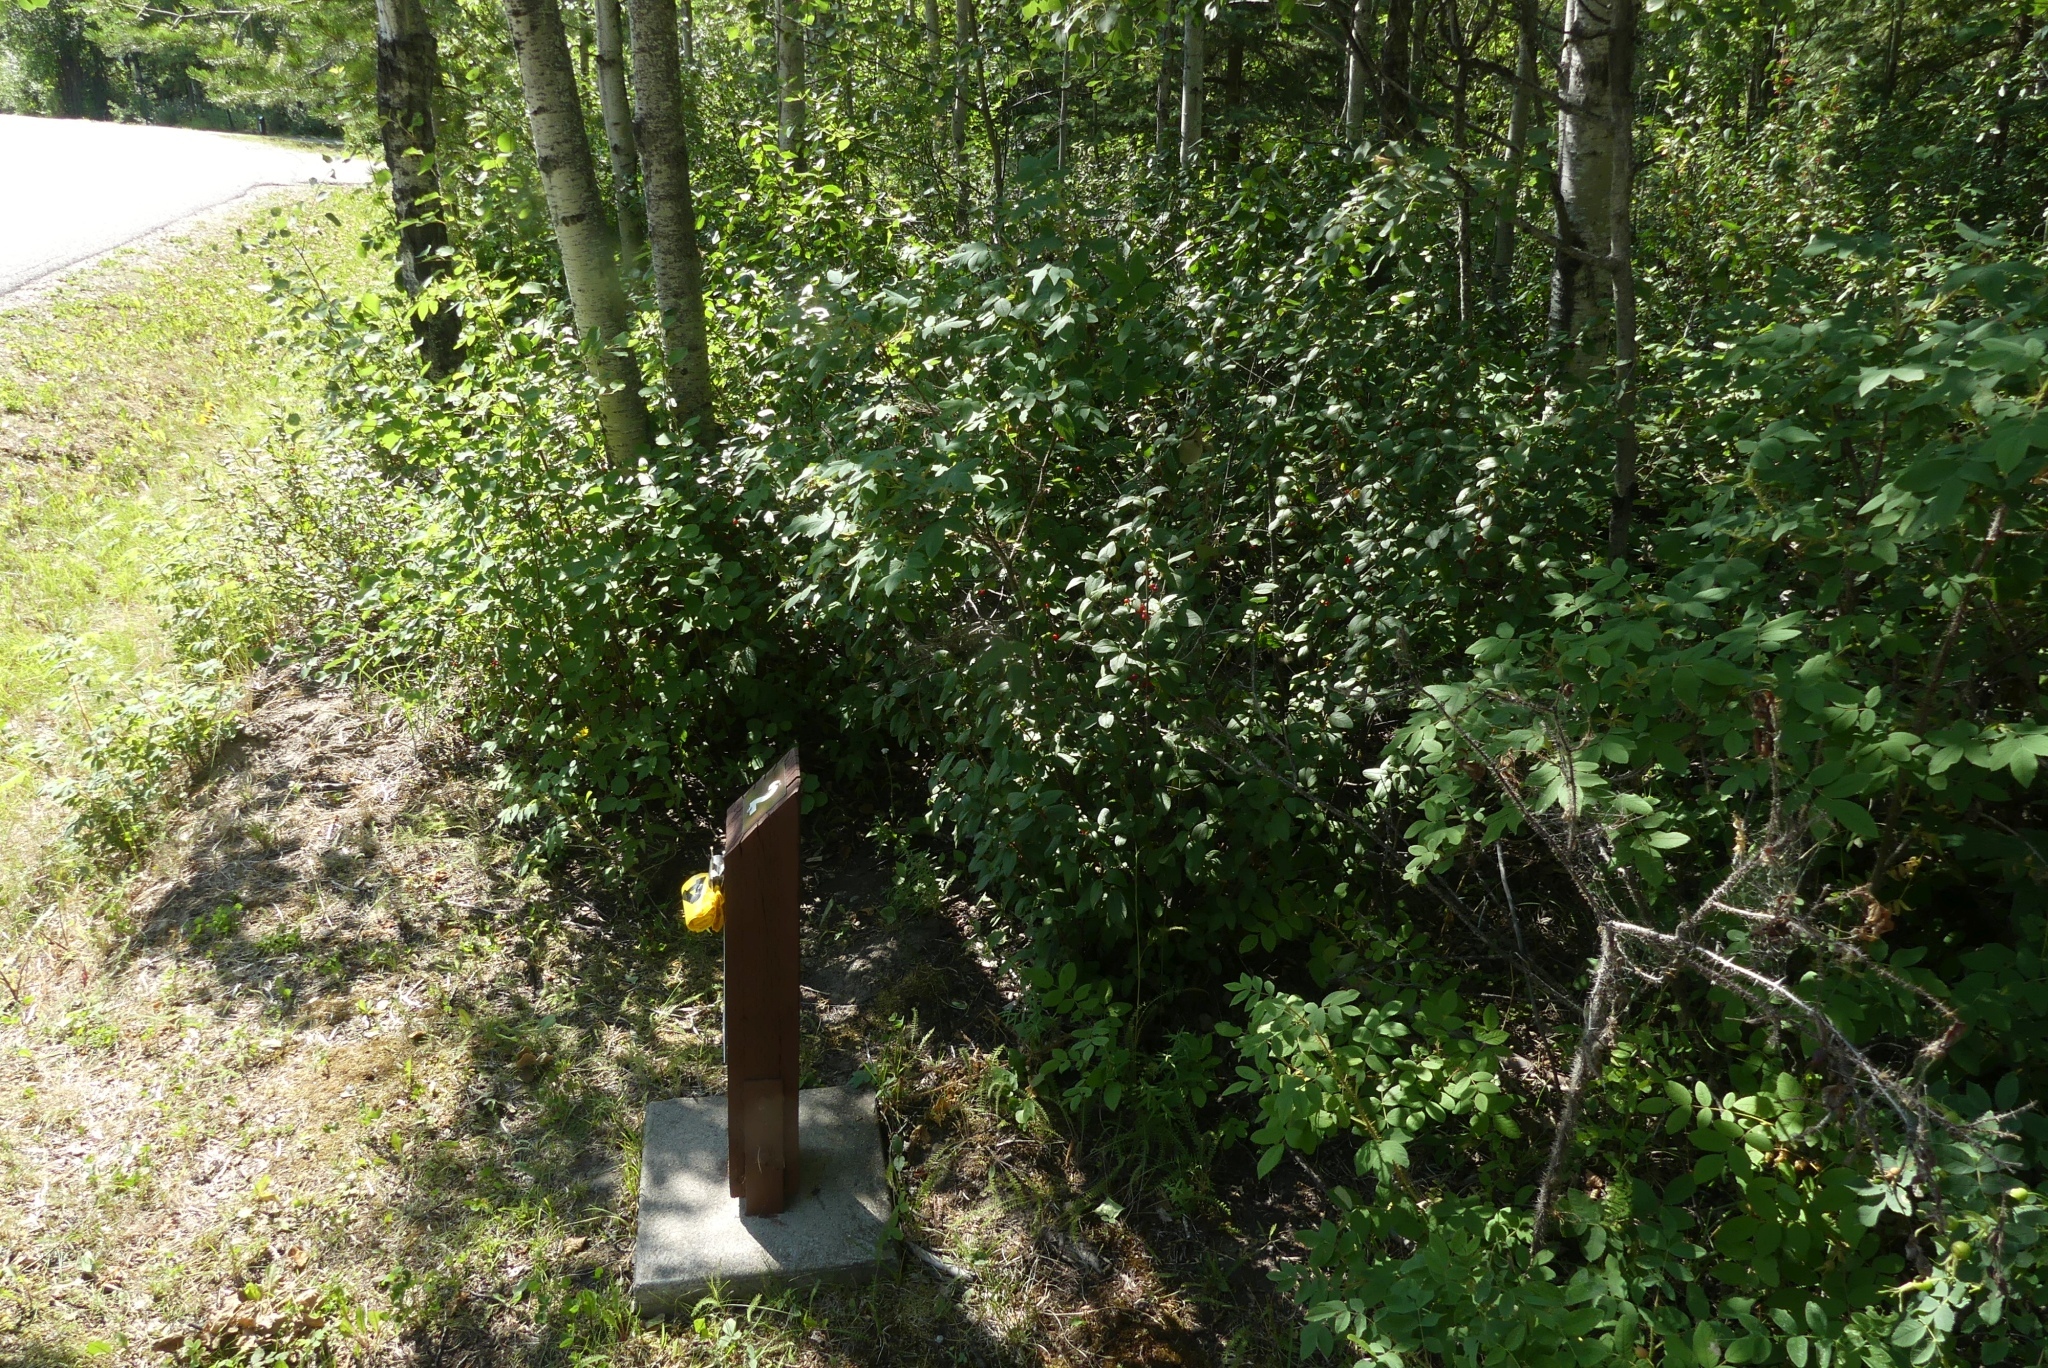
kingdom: Plantae
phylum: Tracheophyta
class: Magnoliopsida
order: Rosales
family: Elaeagnaceae
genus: Shepherdia
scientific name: Shepherdia canadensis
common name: Soapberry
